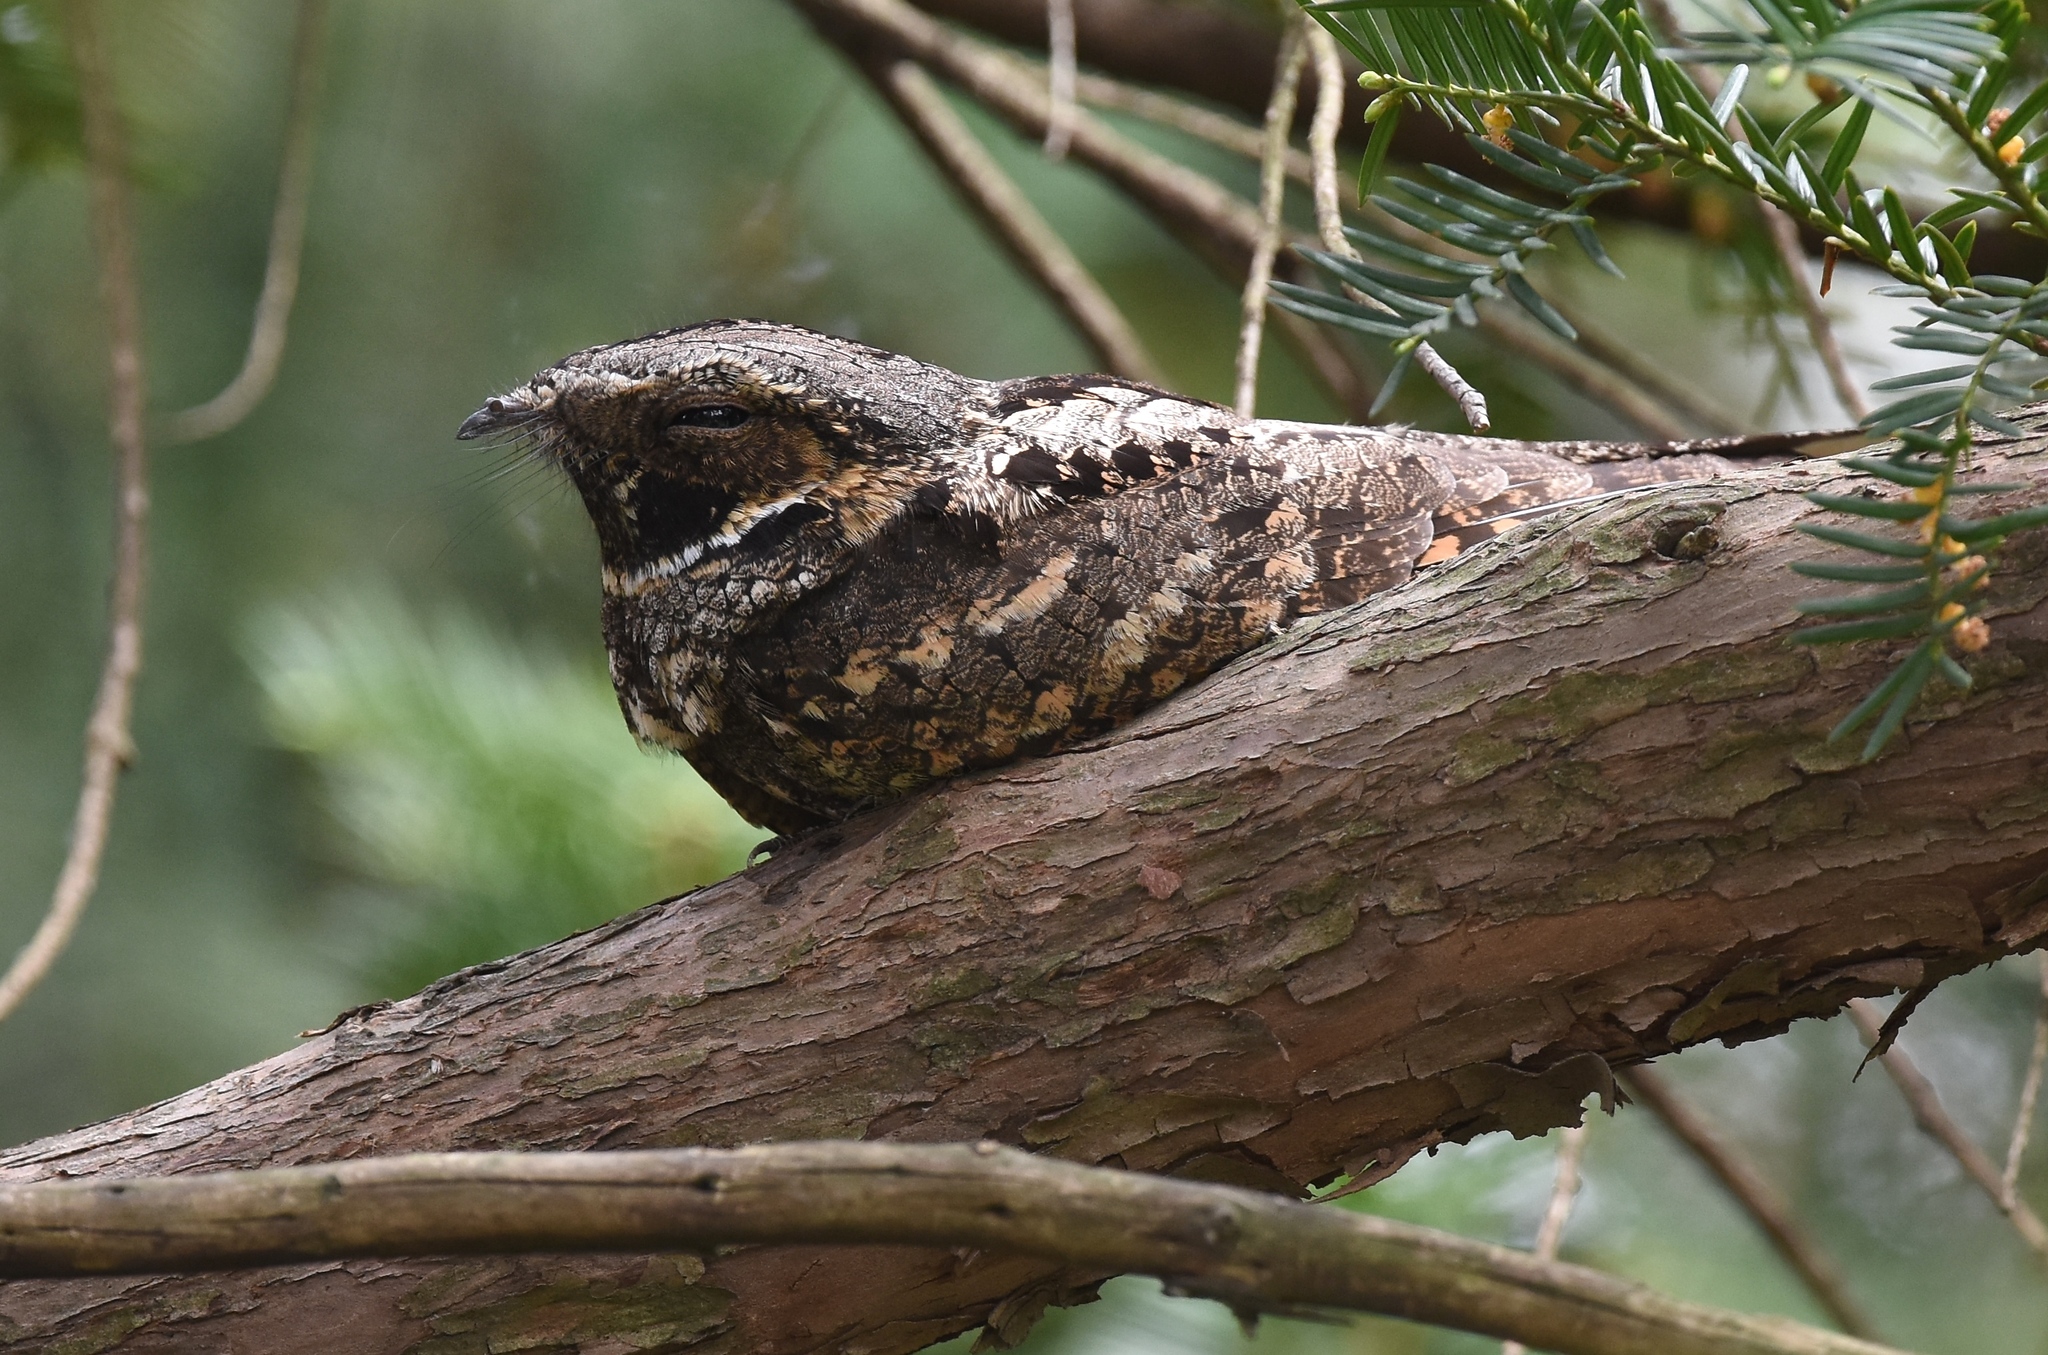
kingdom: Animalia
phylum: Chordata
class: Aves
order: Caprimulgiformes
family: Caprimulgidae
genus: Antrostomus
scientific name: Antrostomus vociferus
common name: Eastern whip-poor-will
